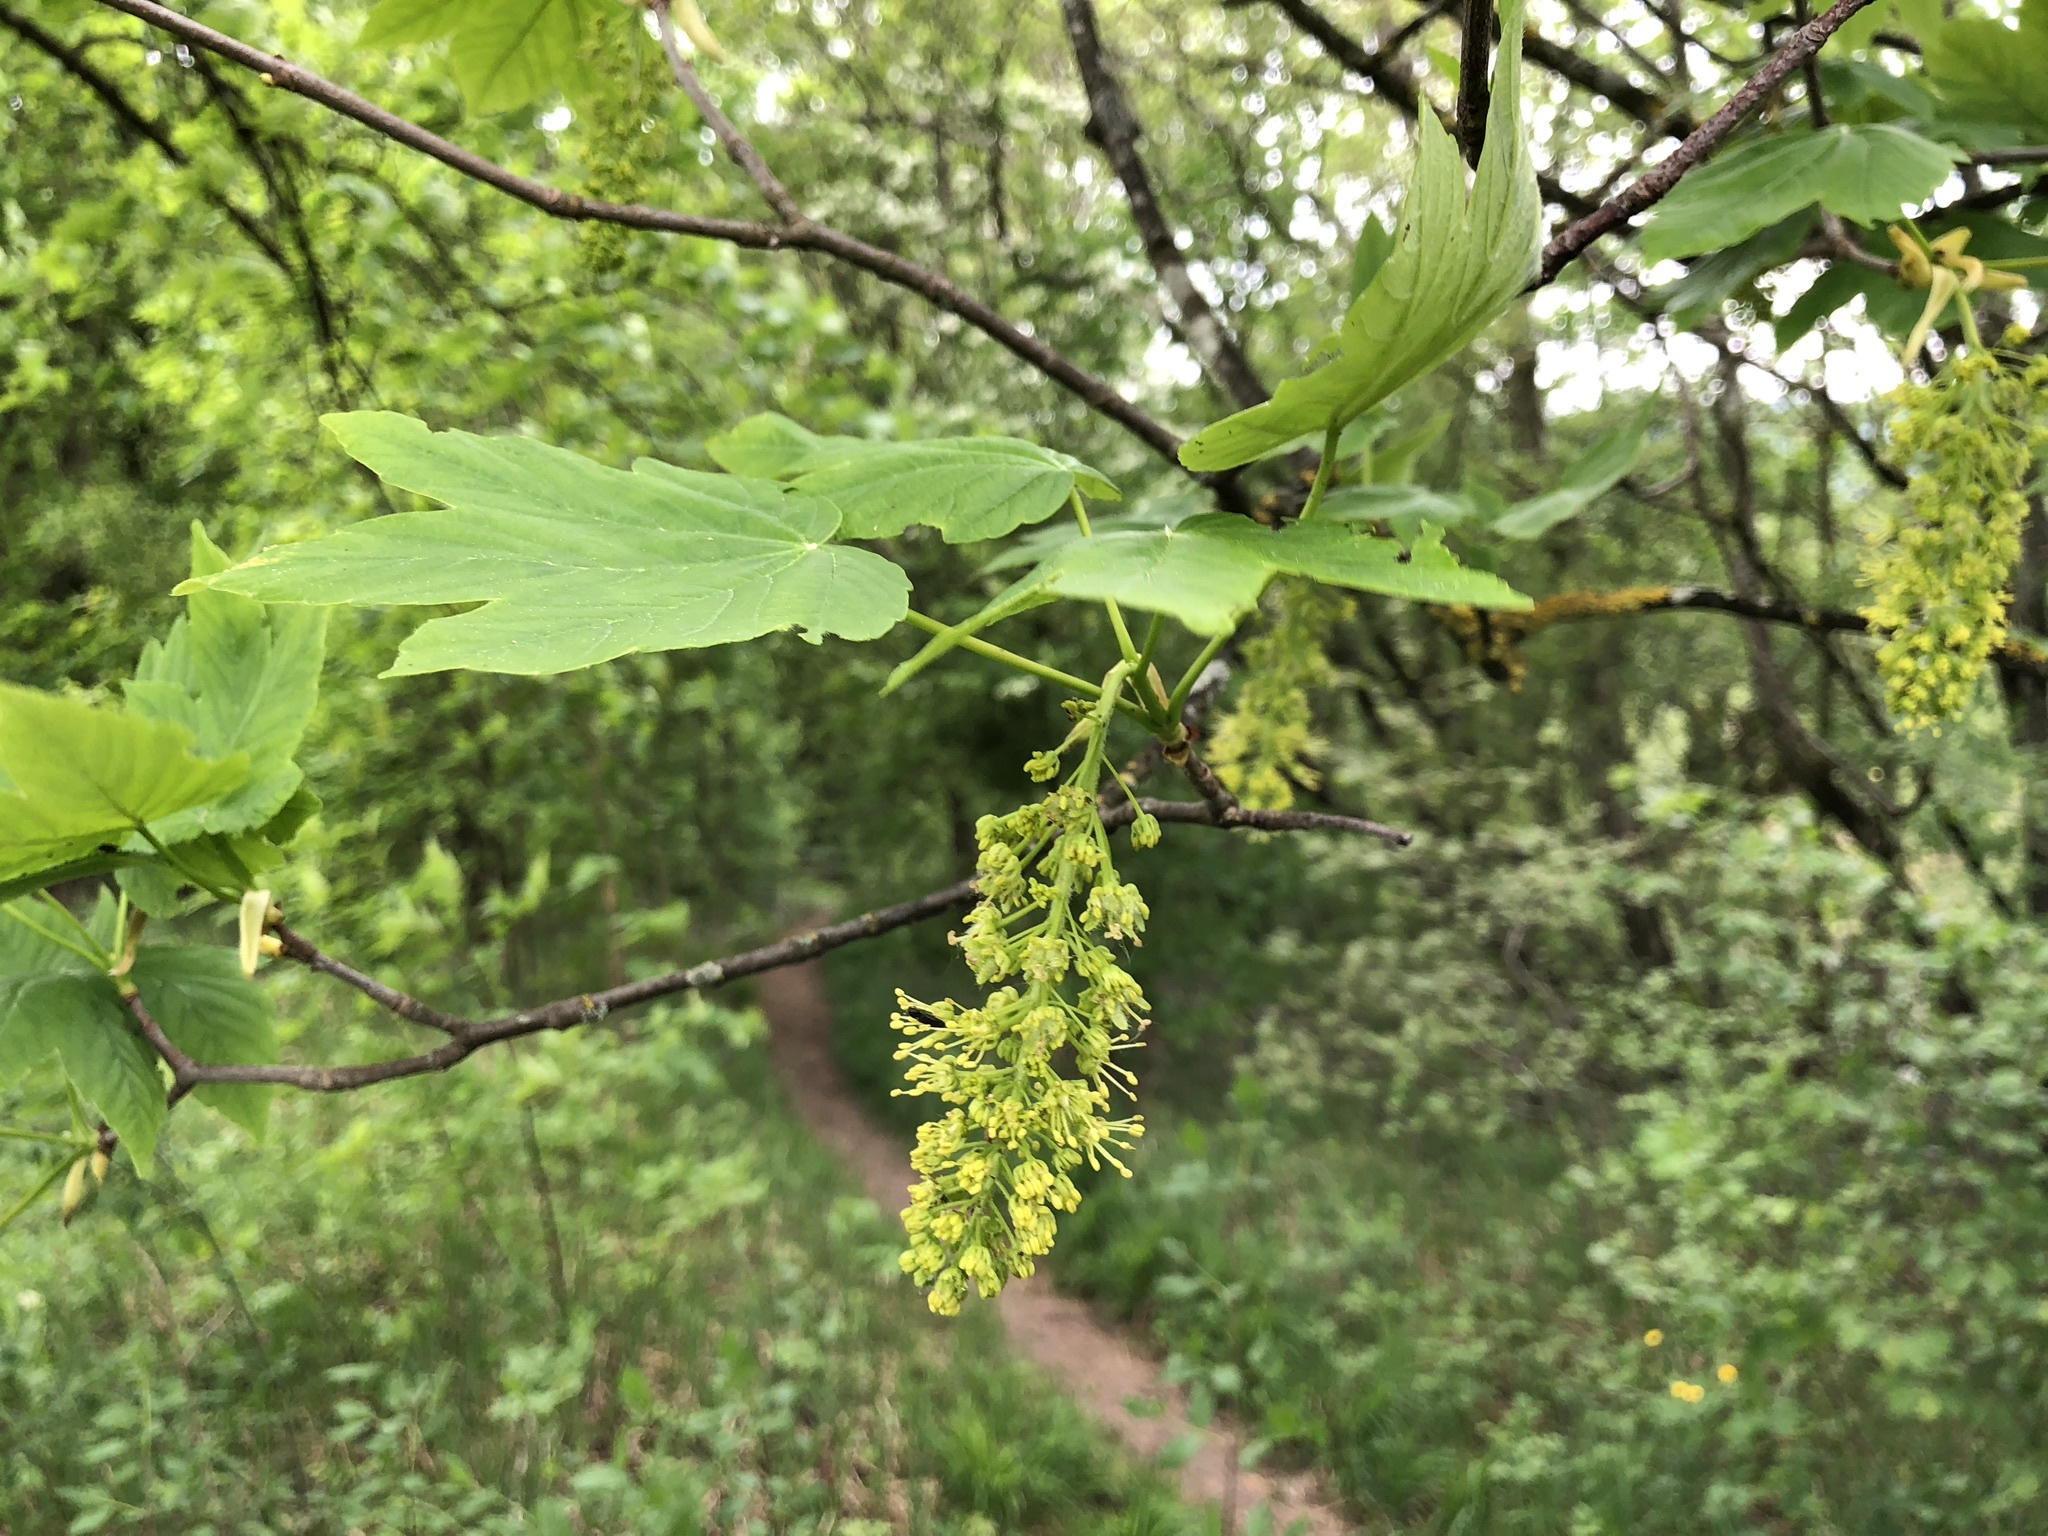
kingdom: Plantae
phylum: Tracheophyta
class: Magnoliopsida
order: Sapindales
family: Sapindaceae
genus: Acer
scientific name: Acer pseudoplatanus
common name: Sycamore
